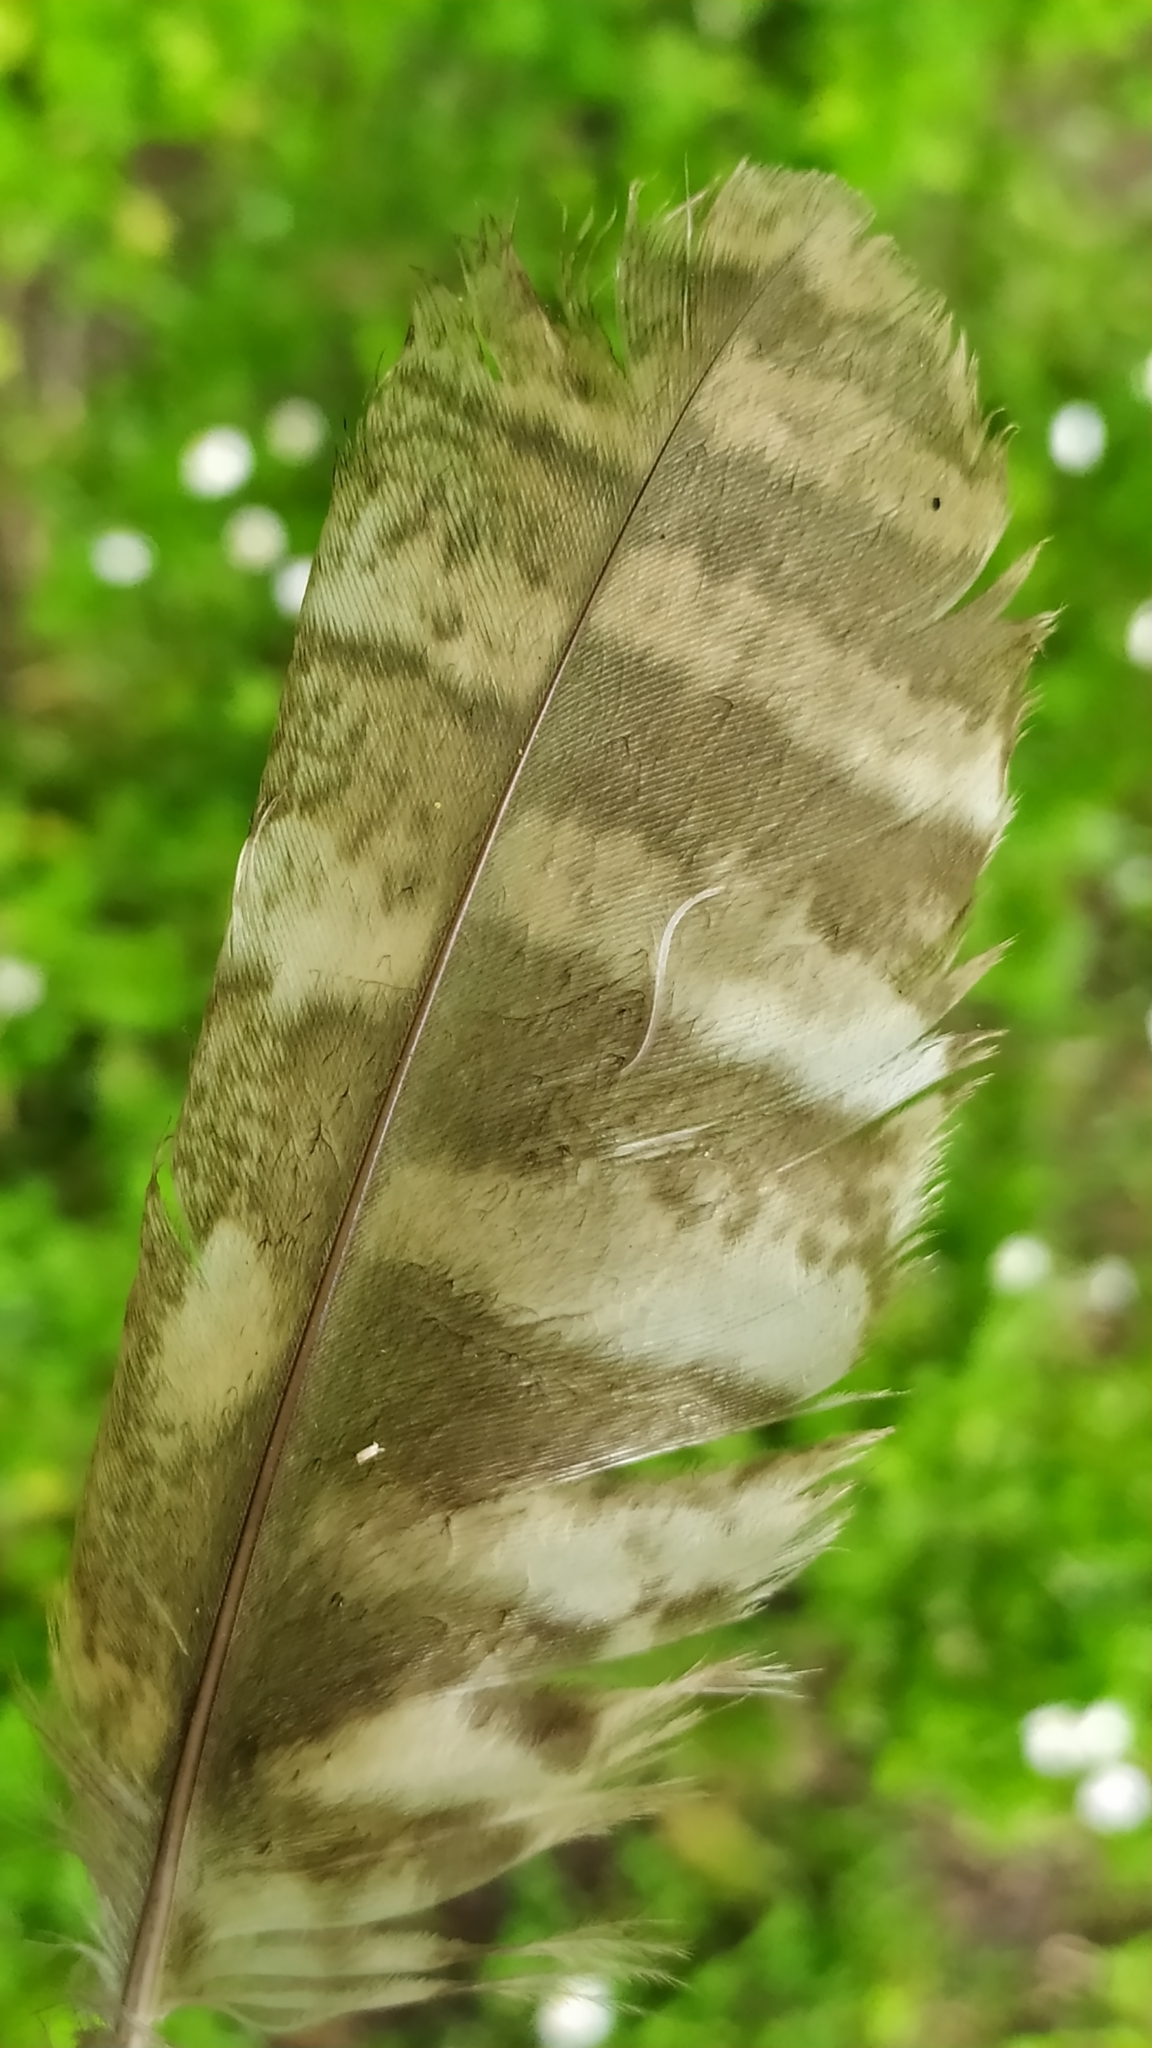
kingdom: Animalia
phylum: Chordata
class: Aves
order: Strigiformes
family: Strigidae
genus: Strix
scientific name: Strix aluco
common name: Tawny owl
